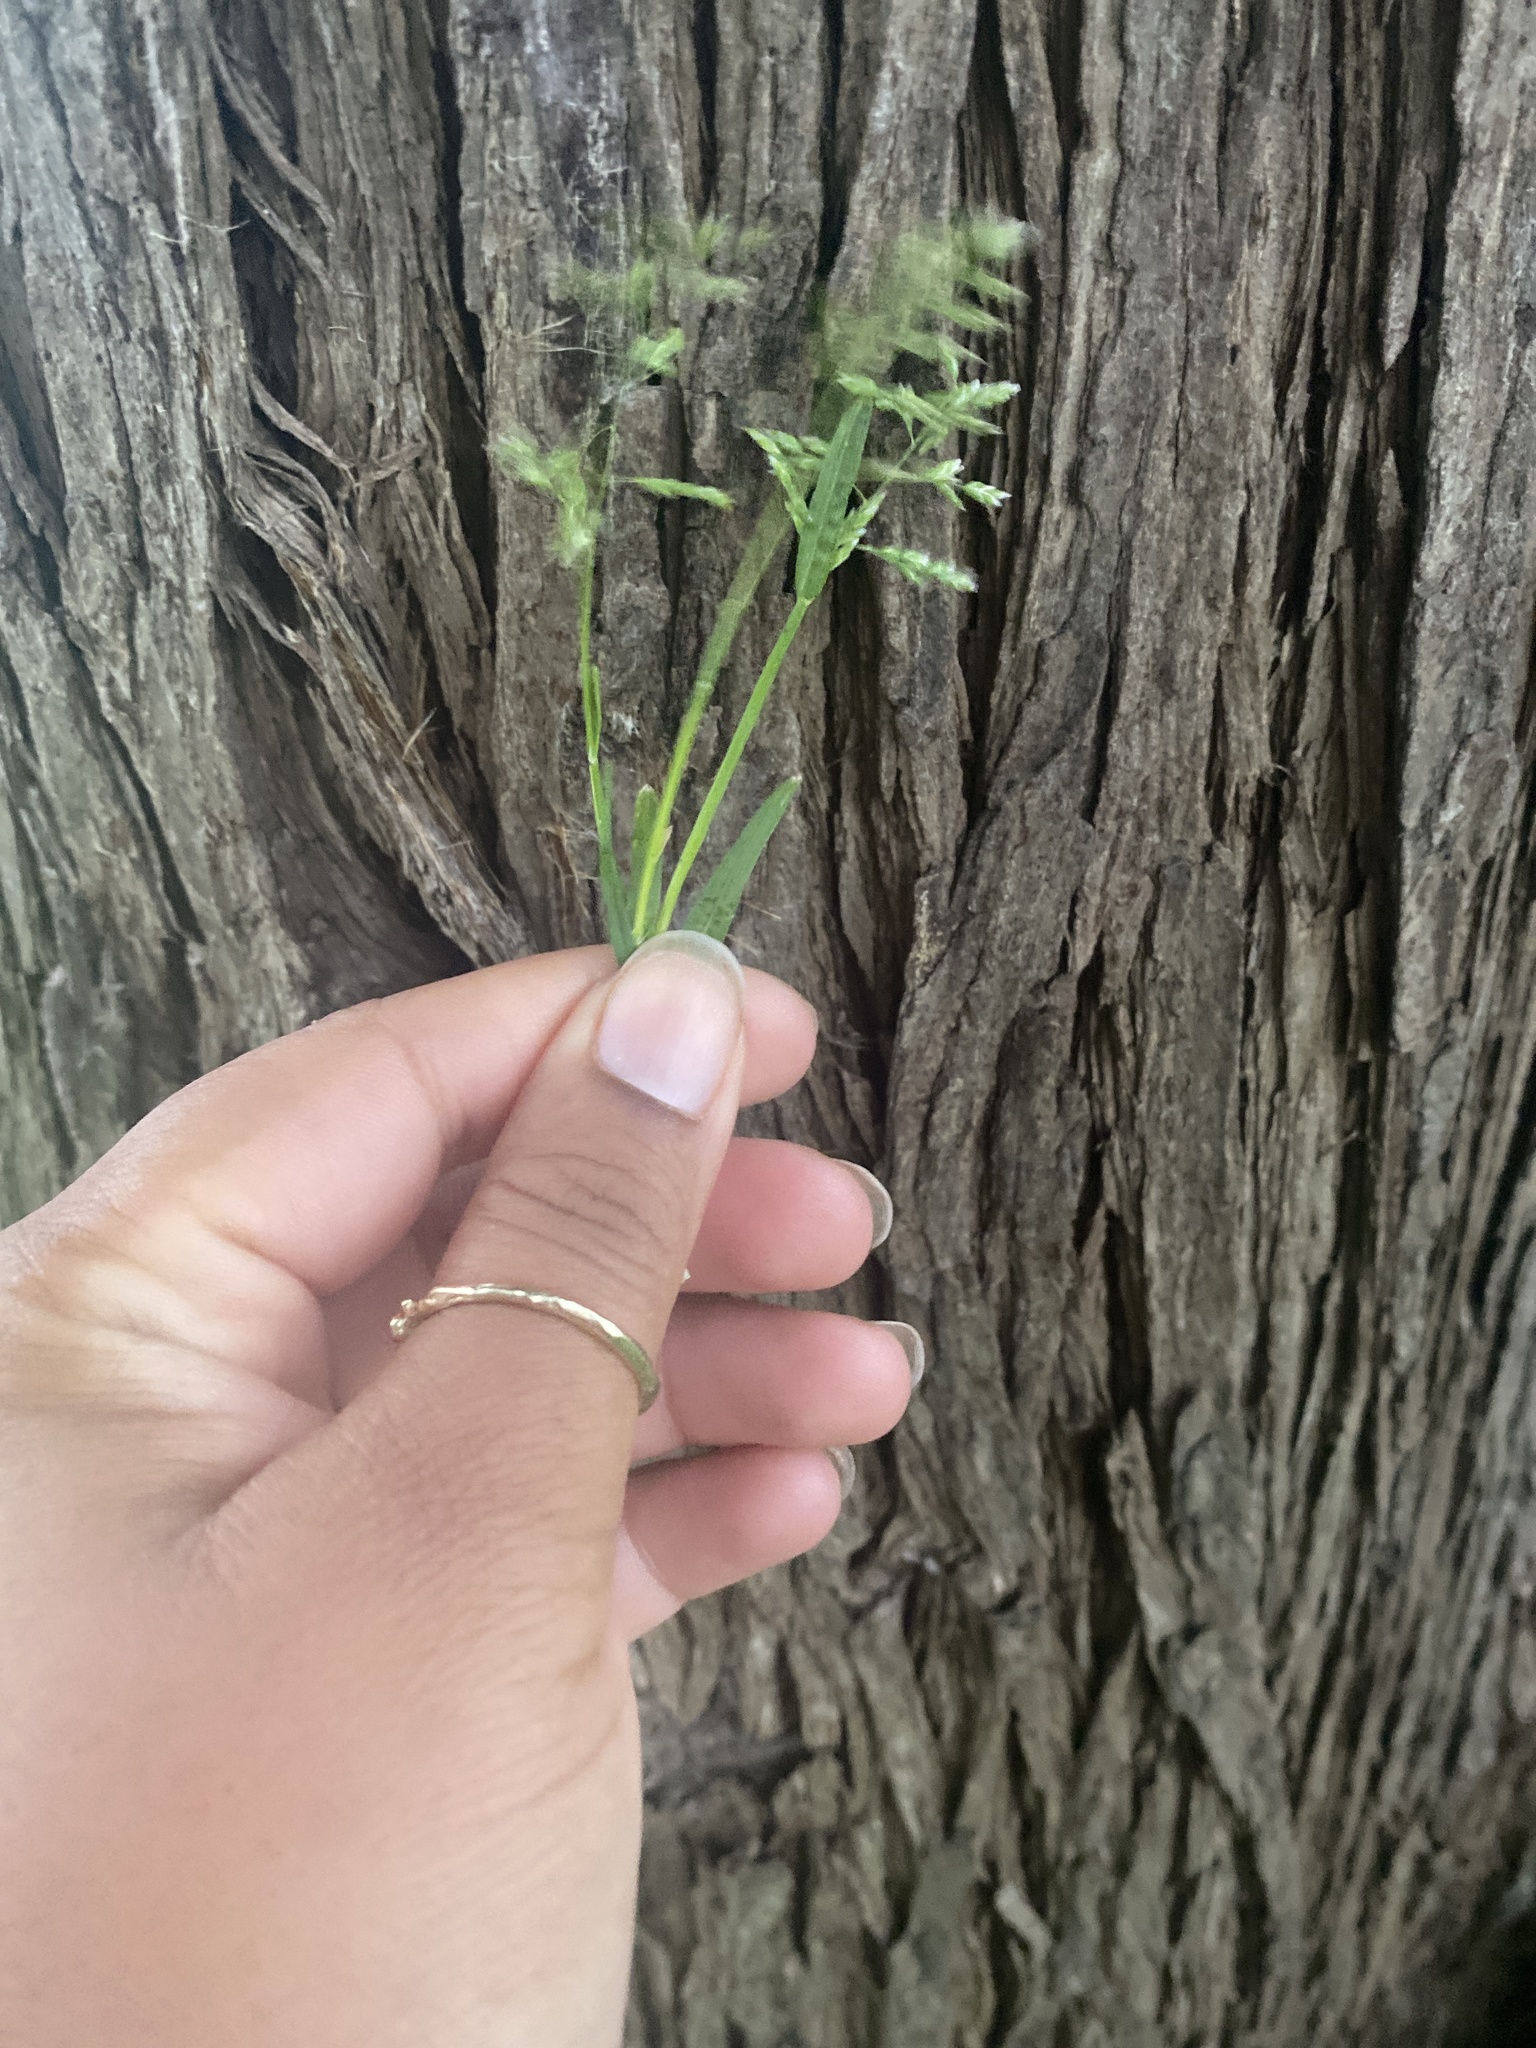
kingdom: Plantae
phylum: Tracheophyta
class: Liliopsida
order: Poales
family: Poaceae
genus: Poa
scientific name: Poa annua
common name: Annual bluegrass
